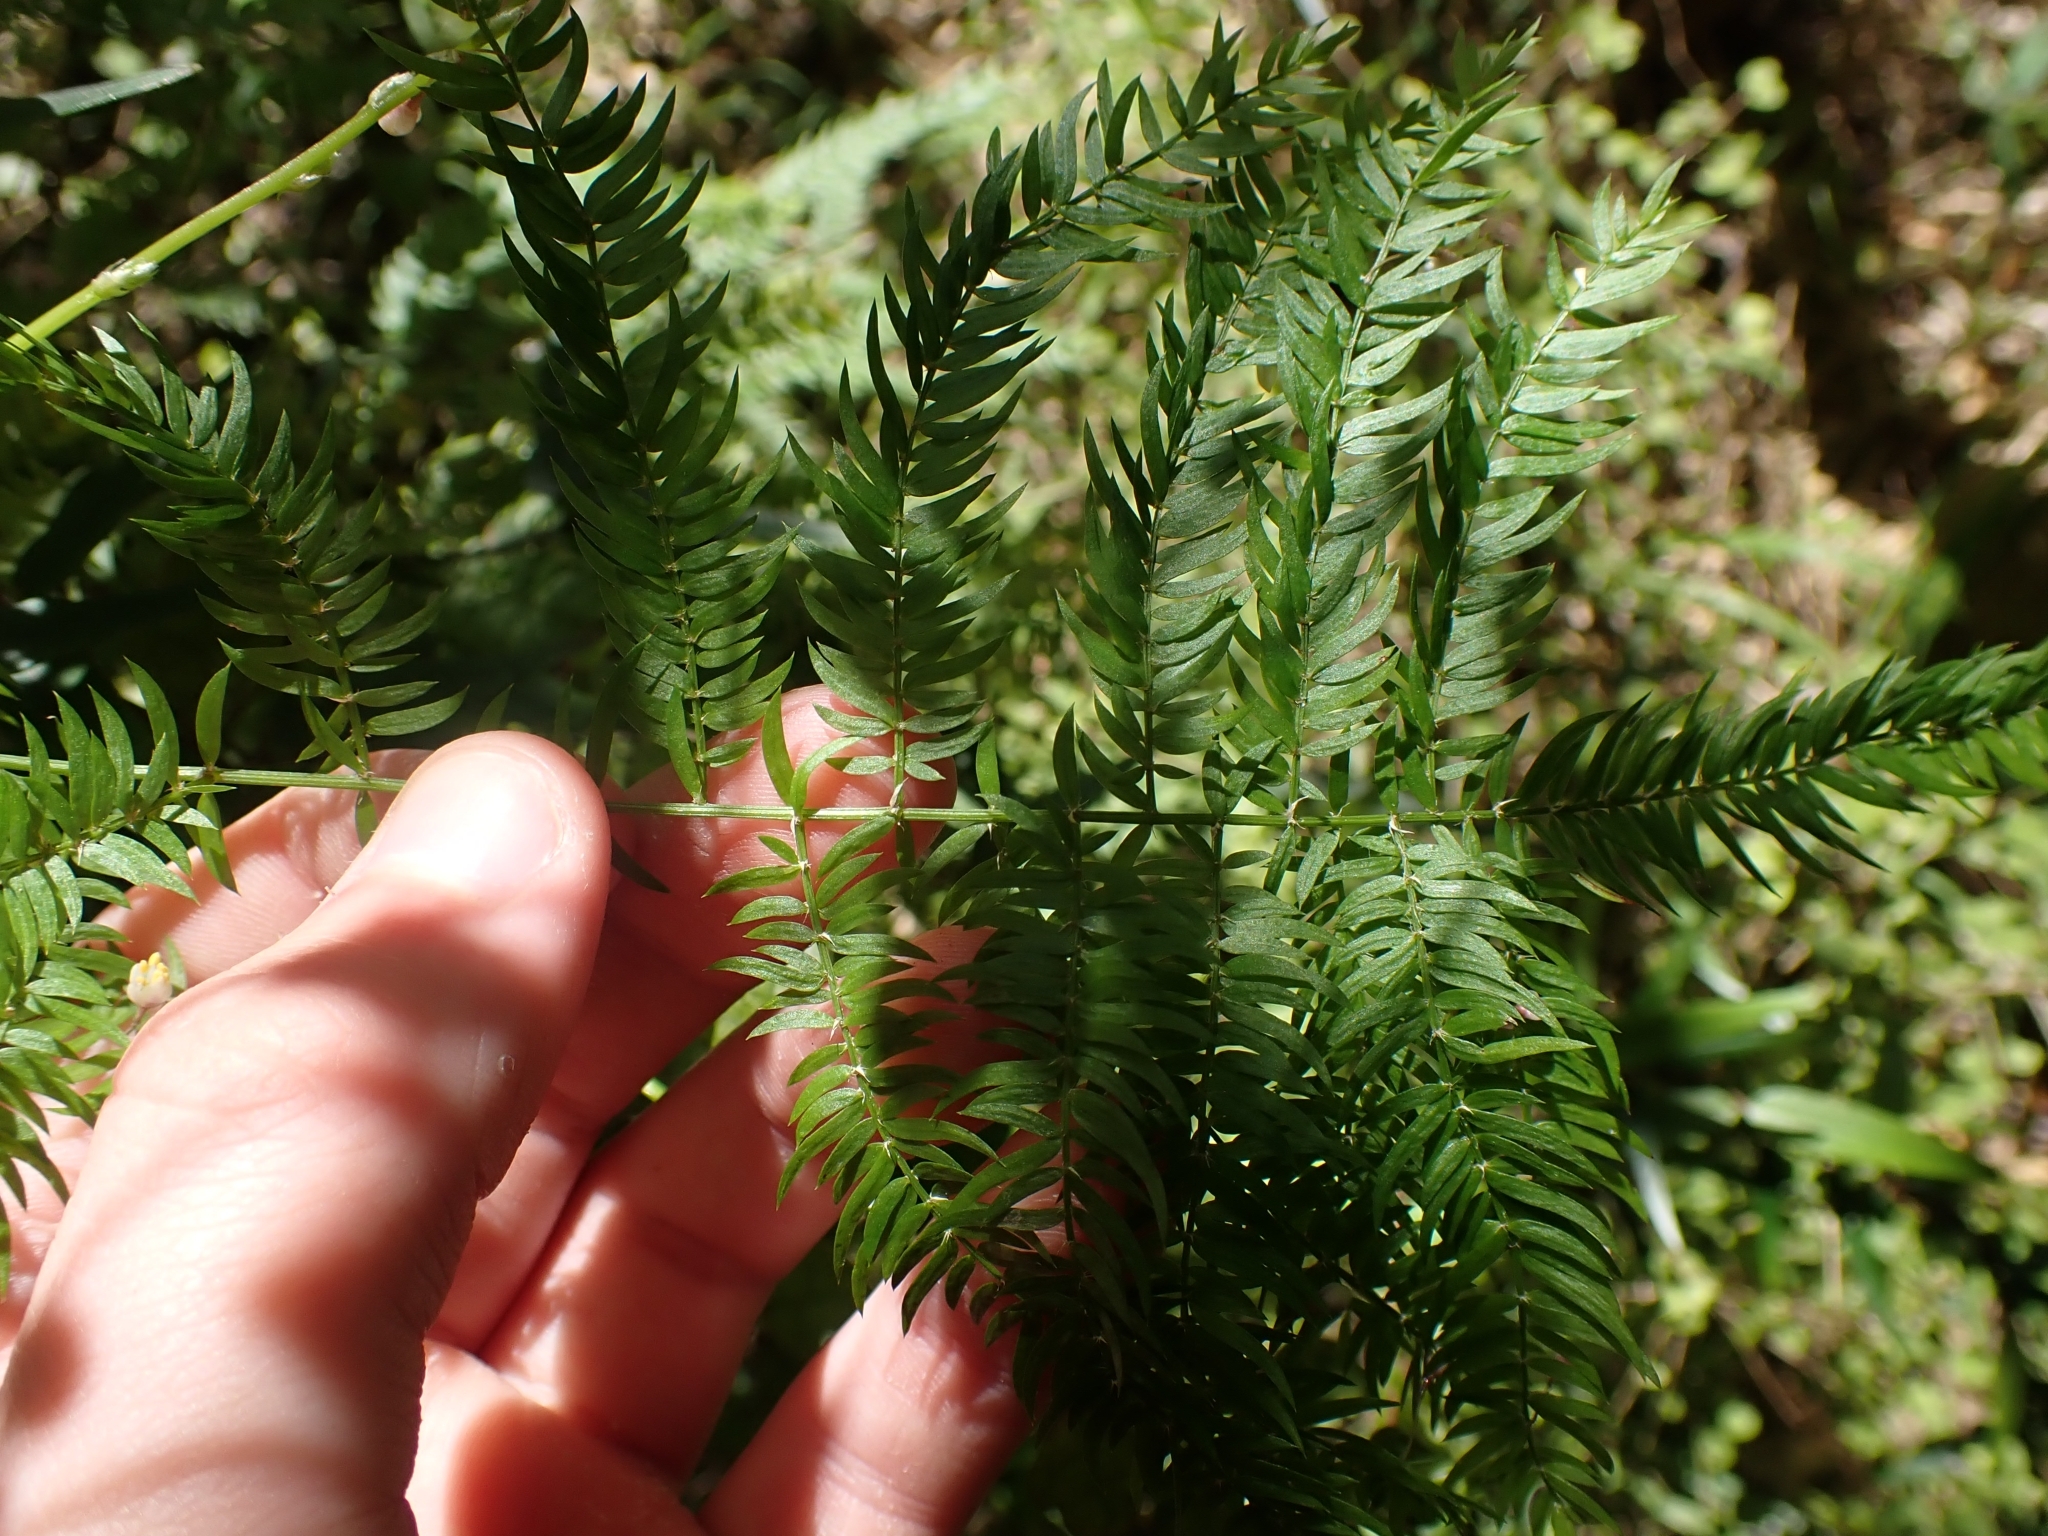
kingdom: Plantae
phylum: Tracheophyta
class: Liliopsida
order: Asparagales
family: Asparagaceae
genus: Asparagus
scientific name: Asparagus scandens
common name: Asparagus-fern
